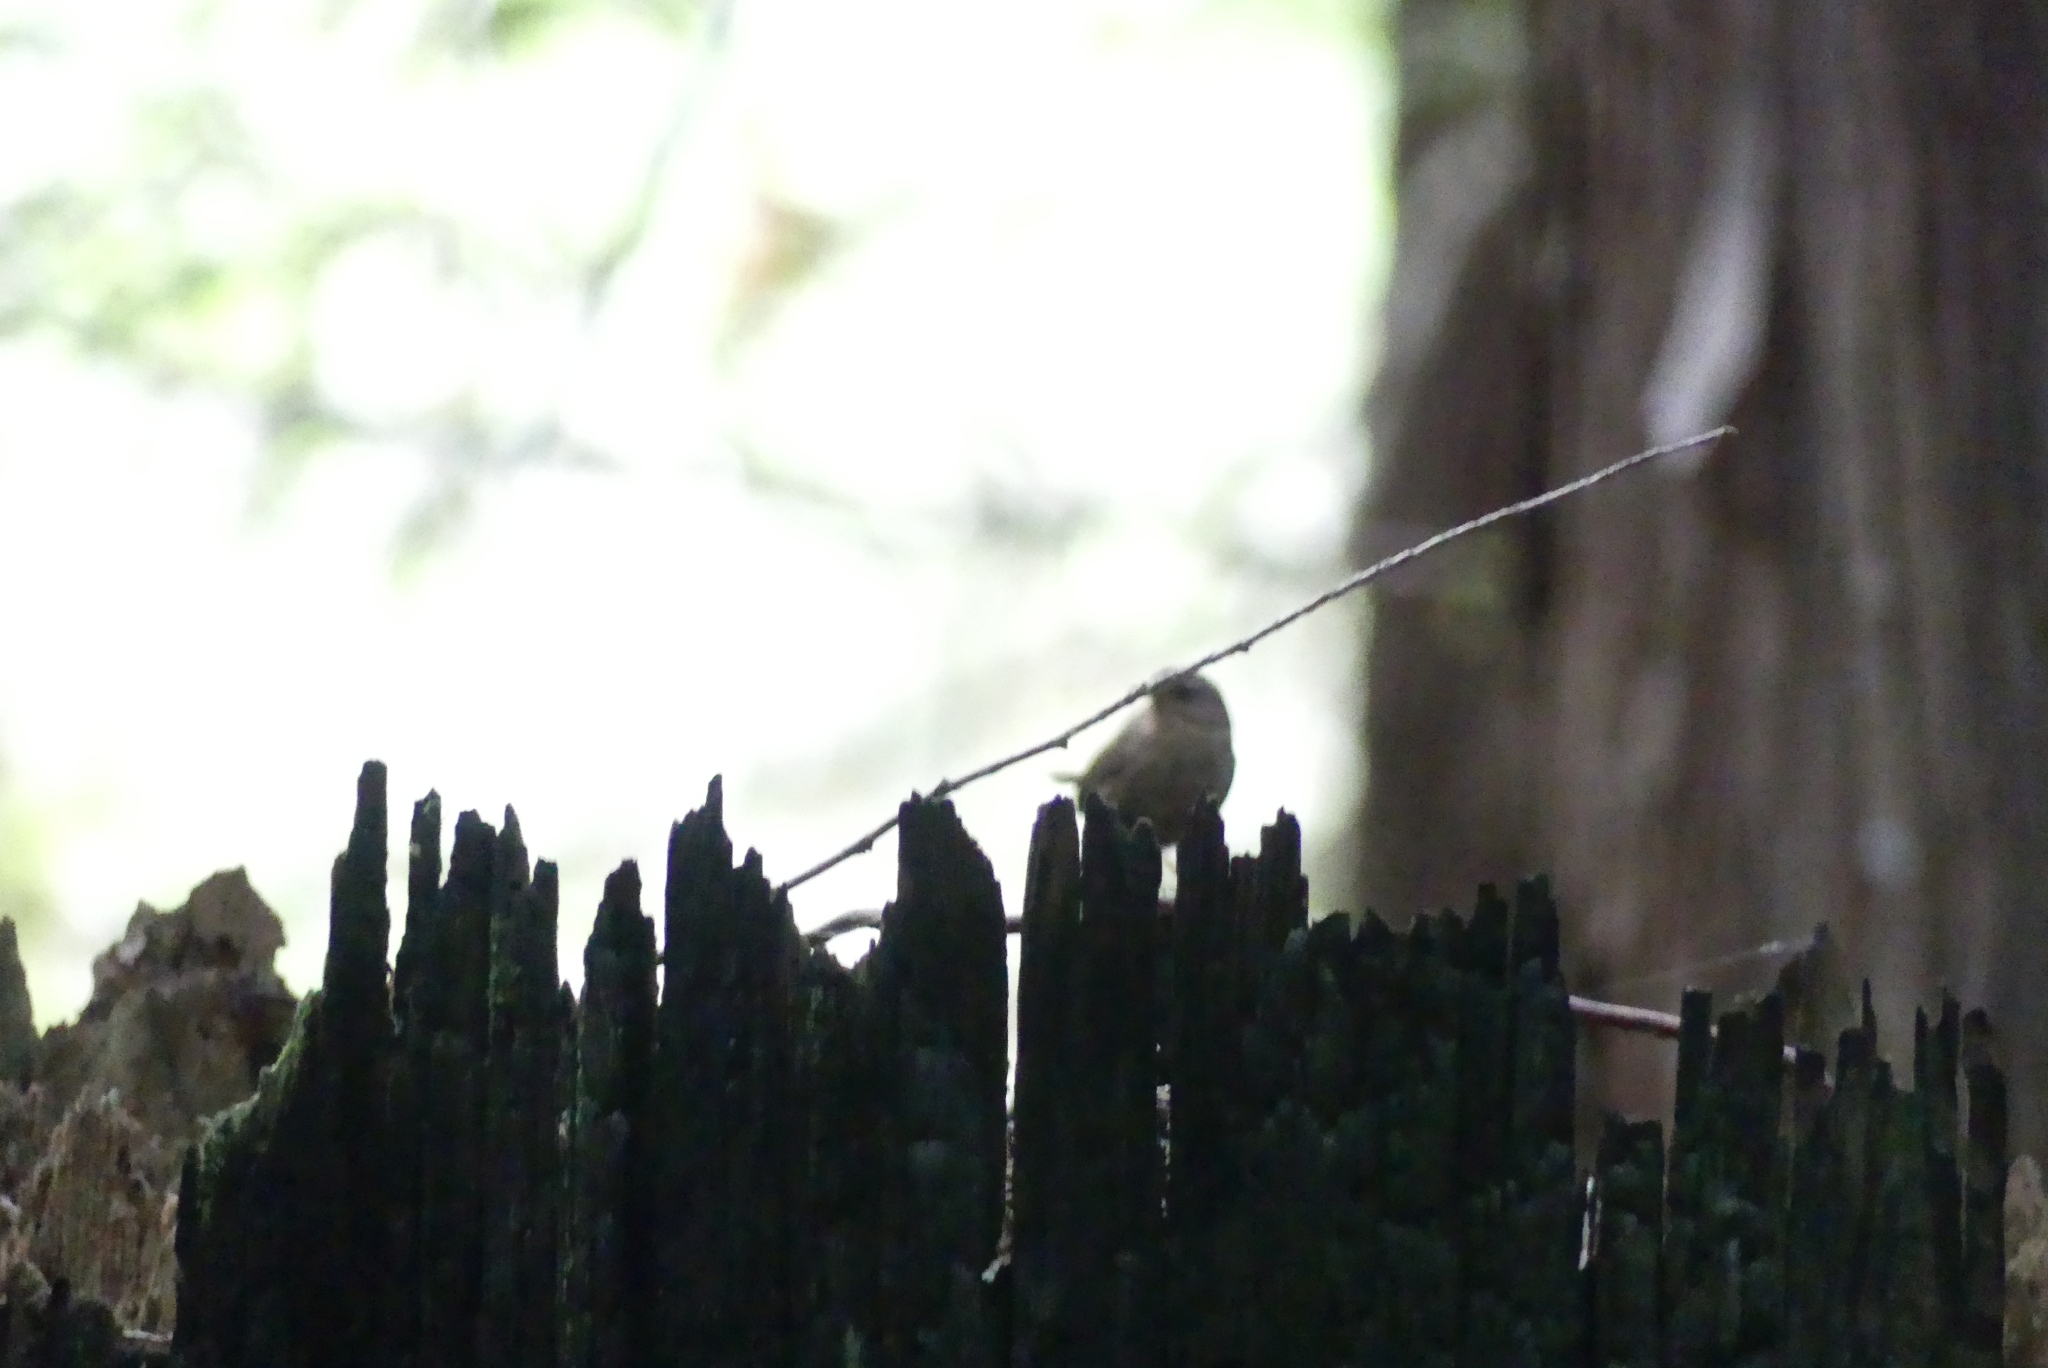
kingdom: Animalia
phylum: Chordata
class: Aves
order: Passeriformes
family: Troglodytidae
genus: Troglodytes
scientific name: Troglodytes pacificus
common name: Pacific wren
